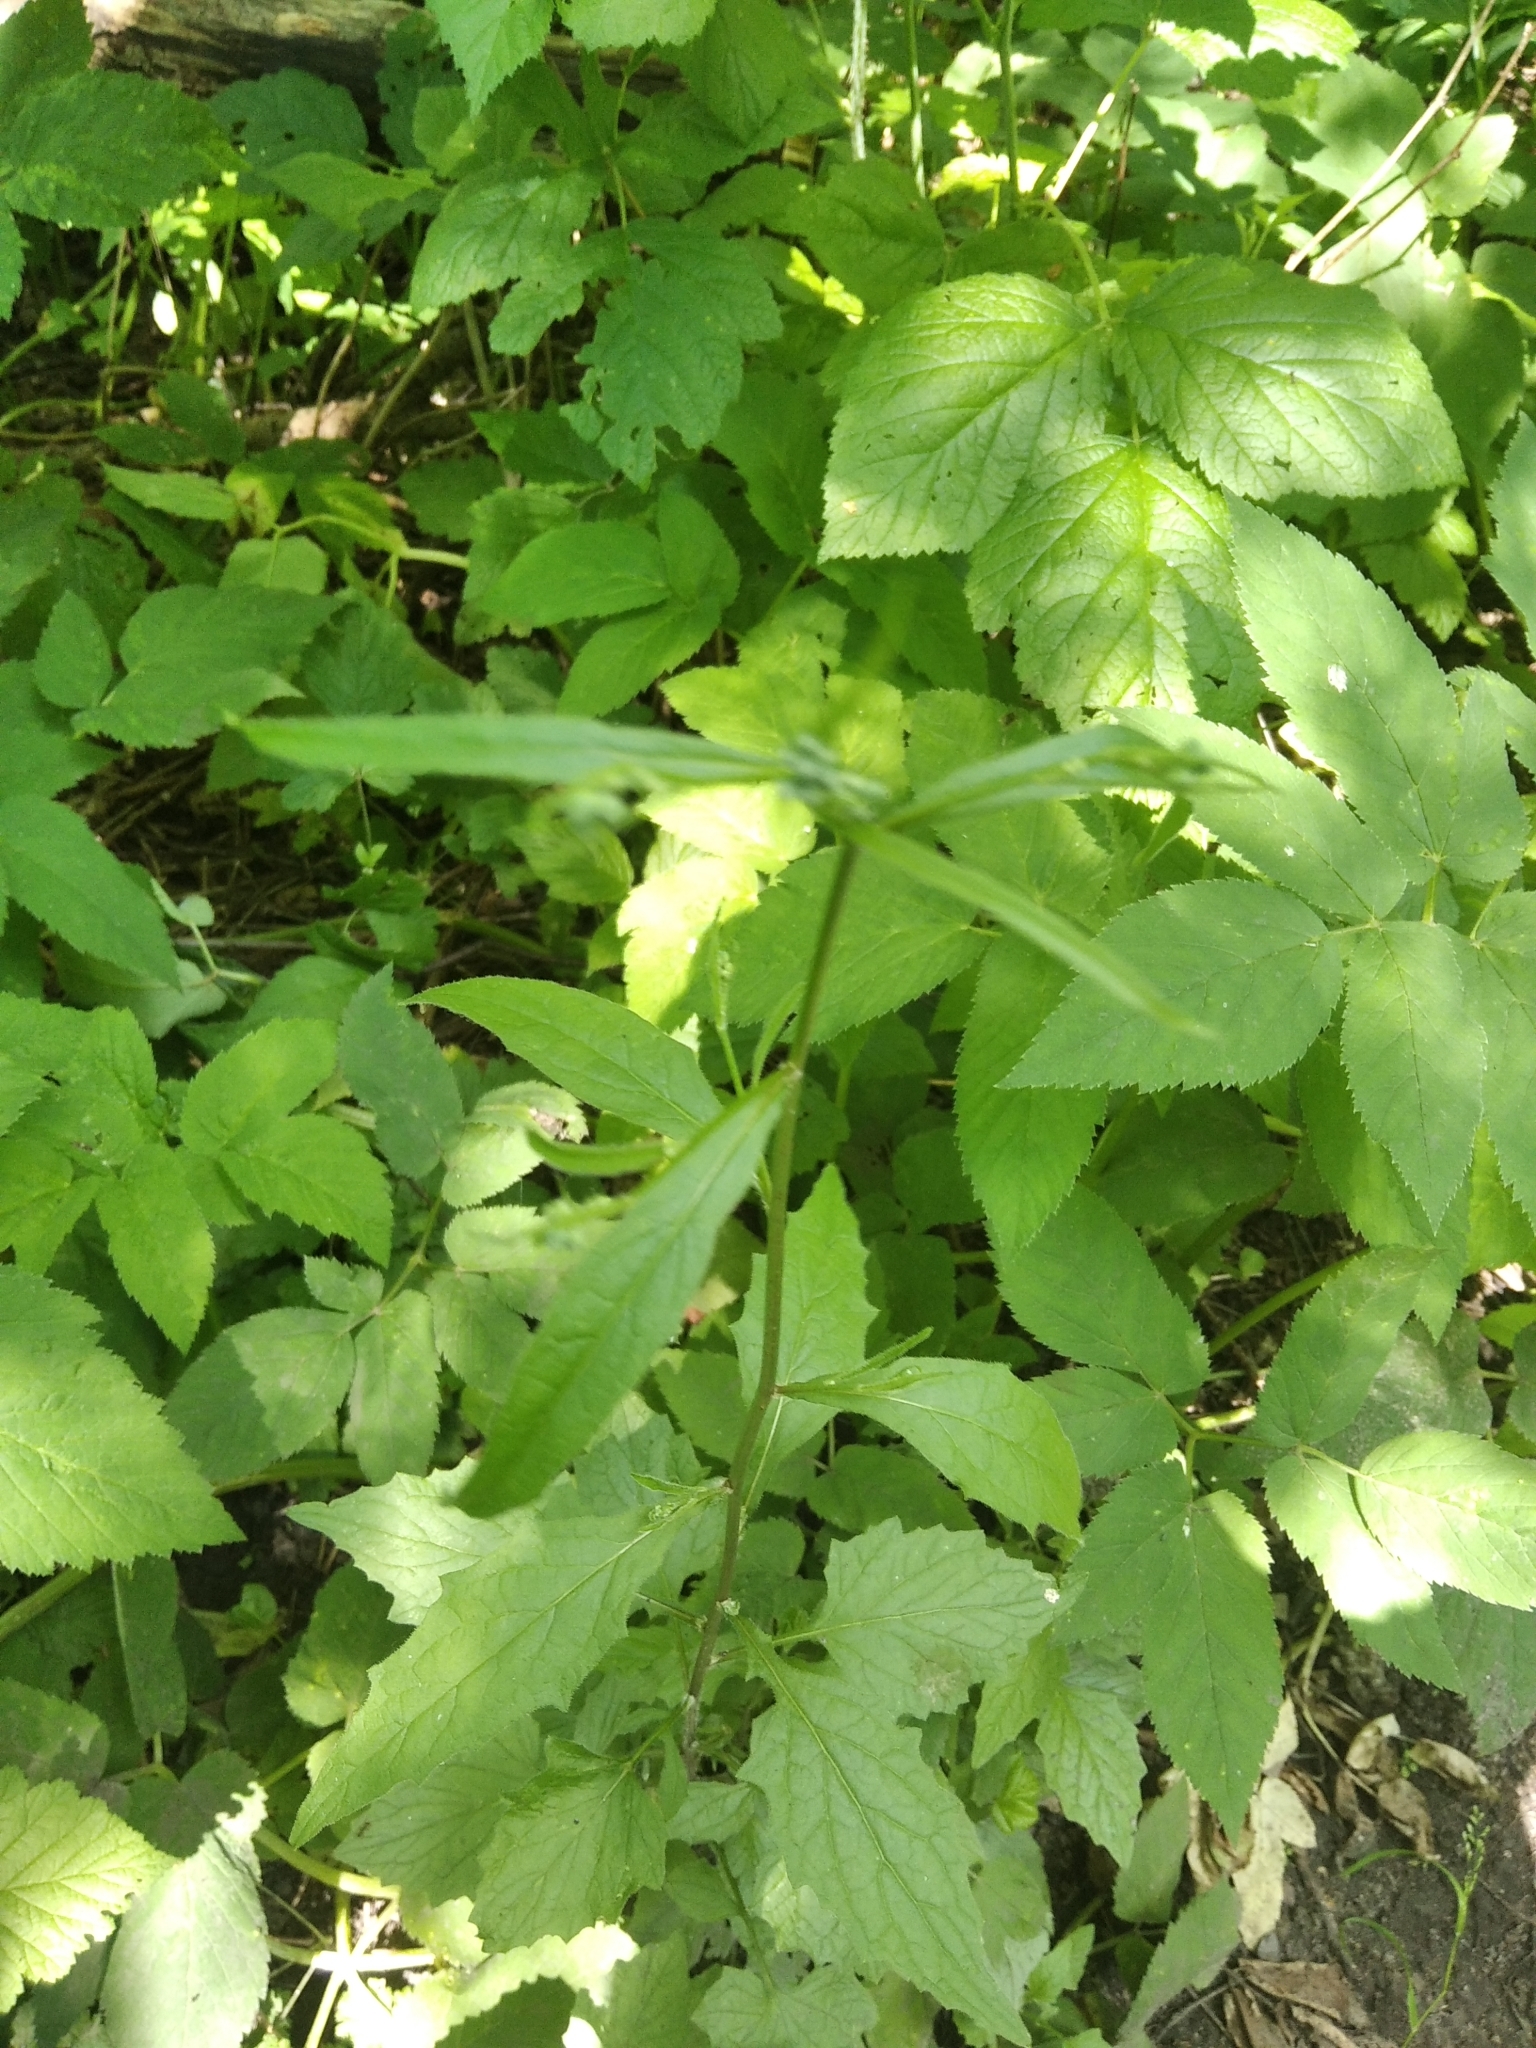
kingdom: Plantae
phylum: Tracheophyta
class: Magnoliopsida
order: Asterales
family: Asteraceae
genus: Lapsana
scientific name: Lapsana communis
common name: Nipplewort
